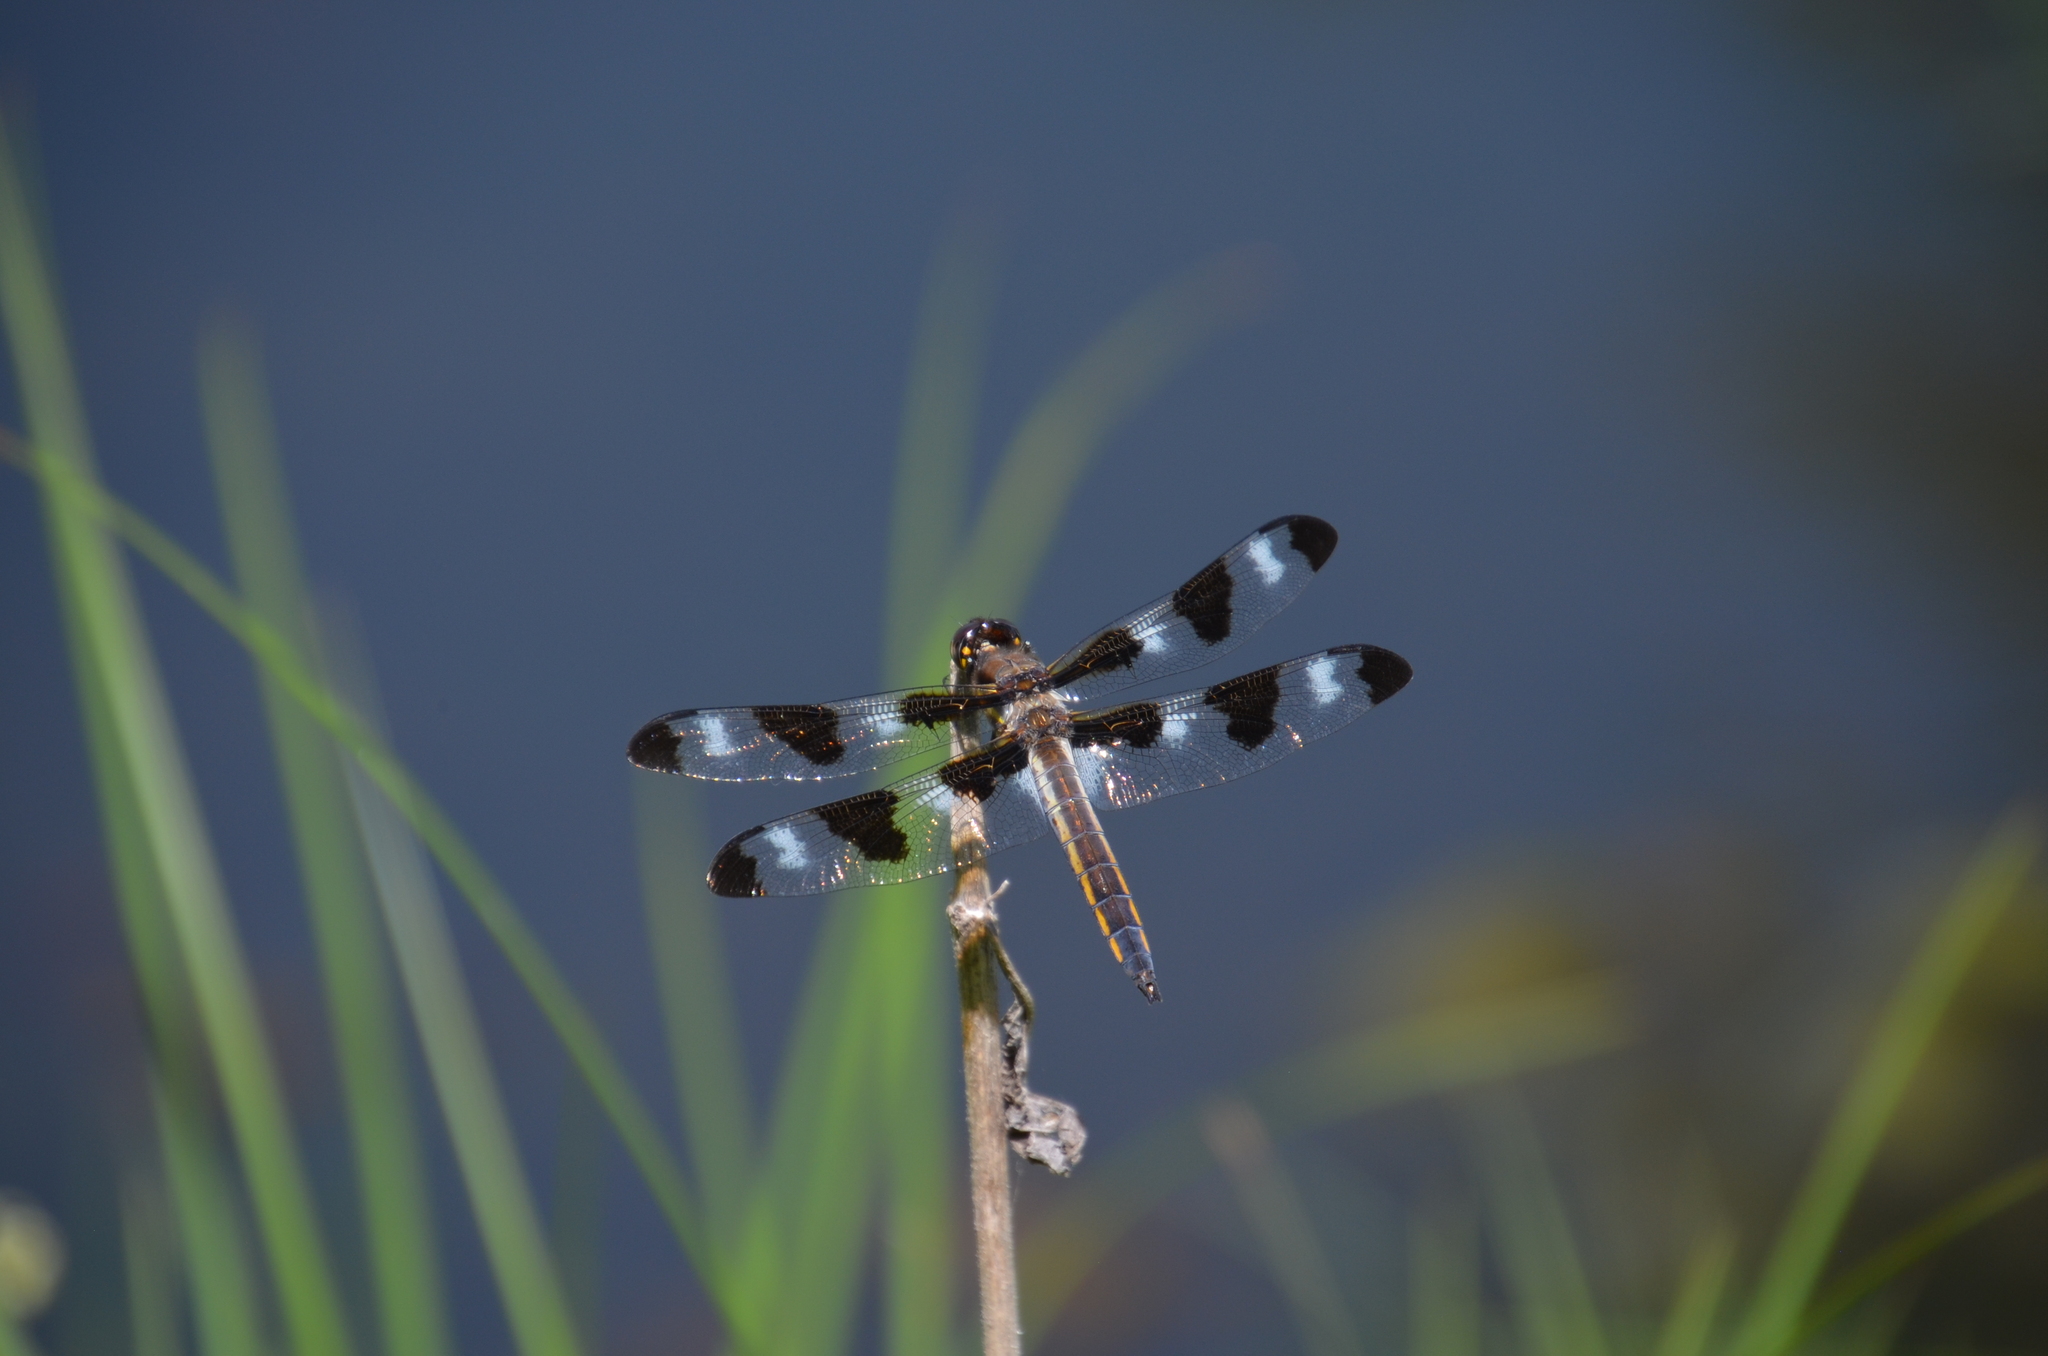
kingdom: Animalia
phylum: Arthropoda
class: Insecta
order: Odonata
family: Libellulidae
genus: Libellula
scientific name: Libellula pulchella
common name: Twelve-spotted skimmer
